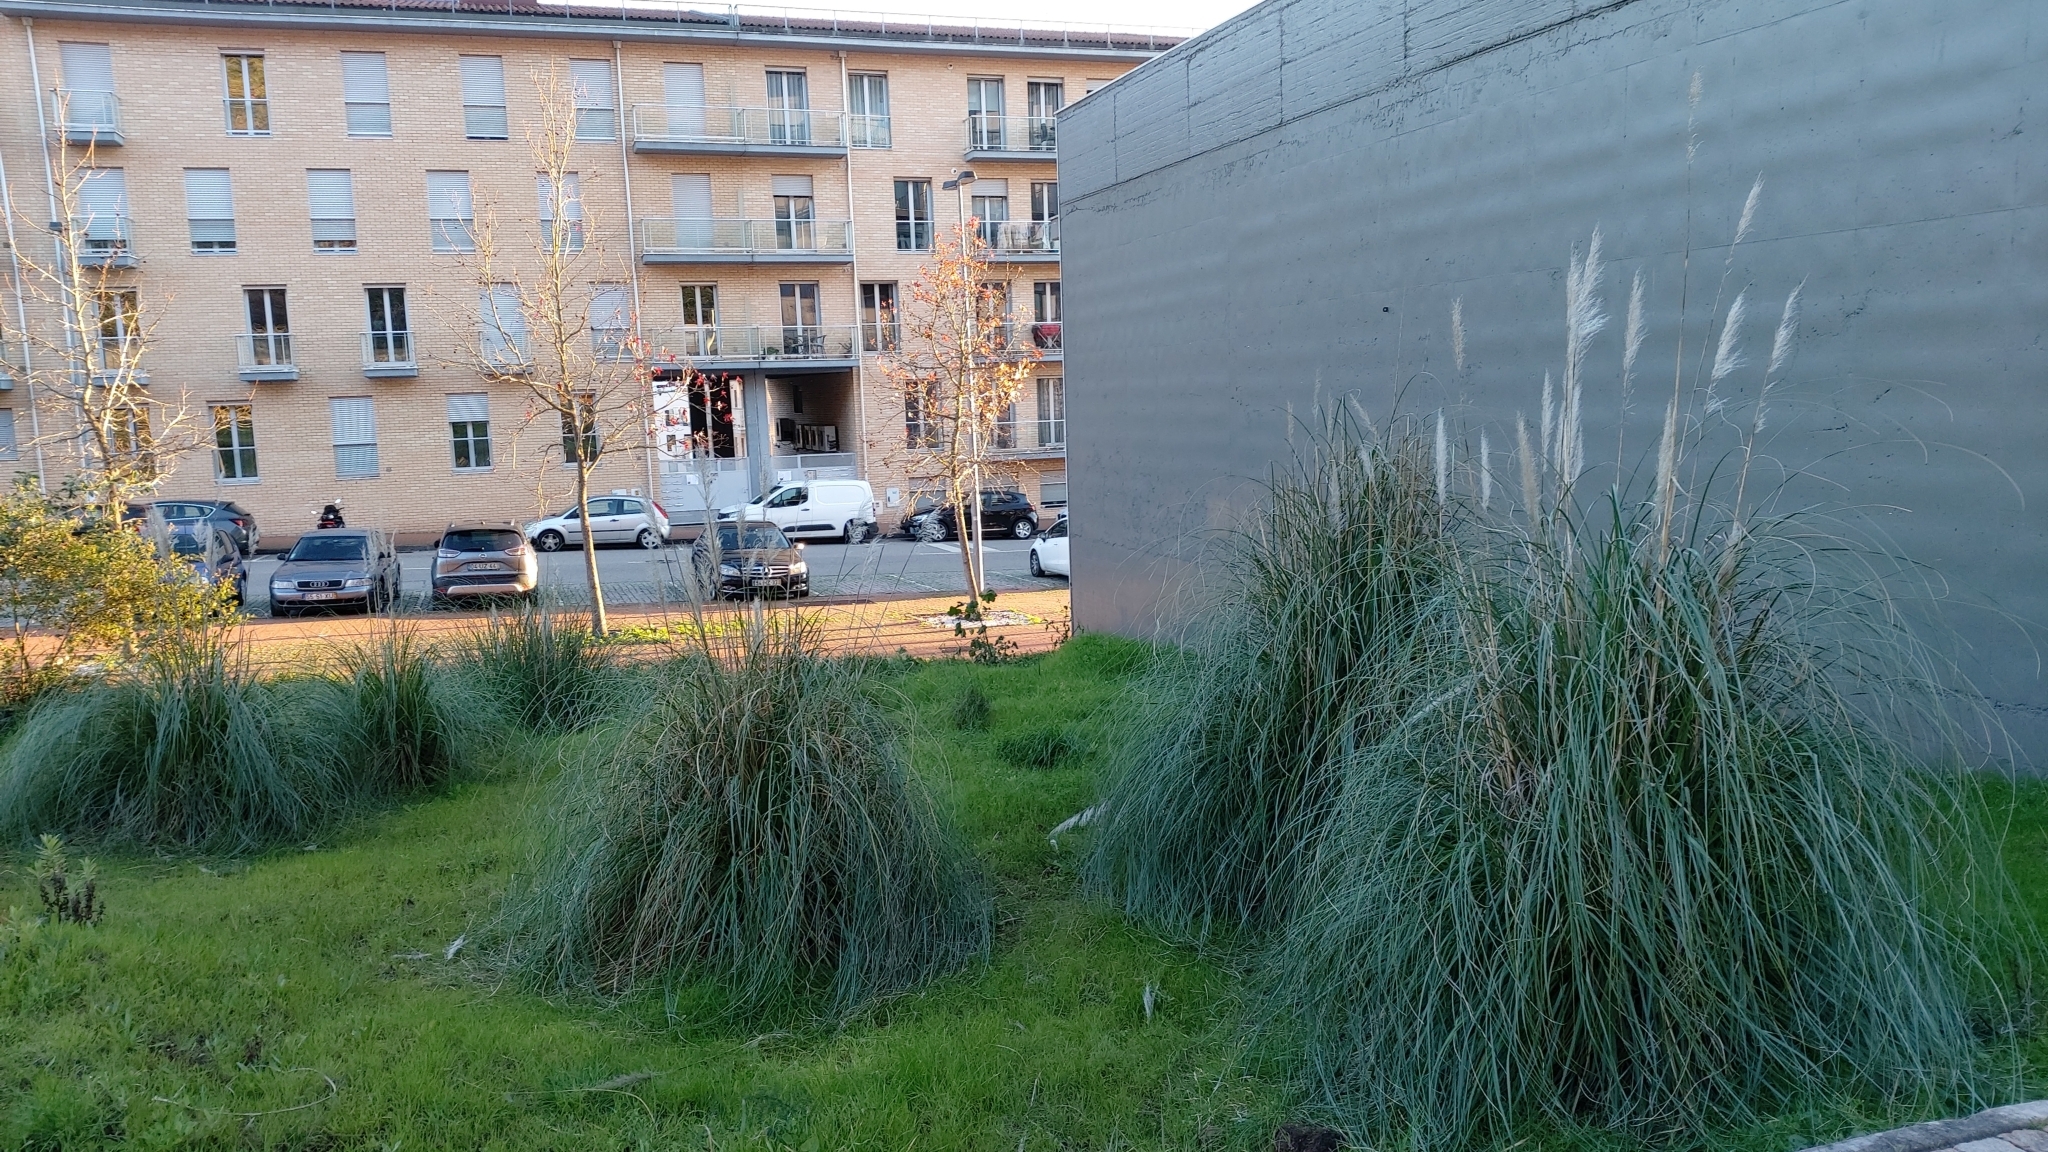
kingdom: Plantae
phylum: Tracheophyta
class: Liliopsida
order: Poales
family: Poaceae
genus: Cortaderia
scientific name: Cortaderia selloana
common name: Uruguayan pampas grass
